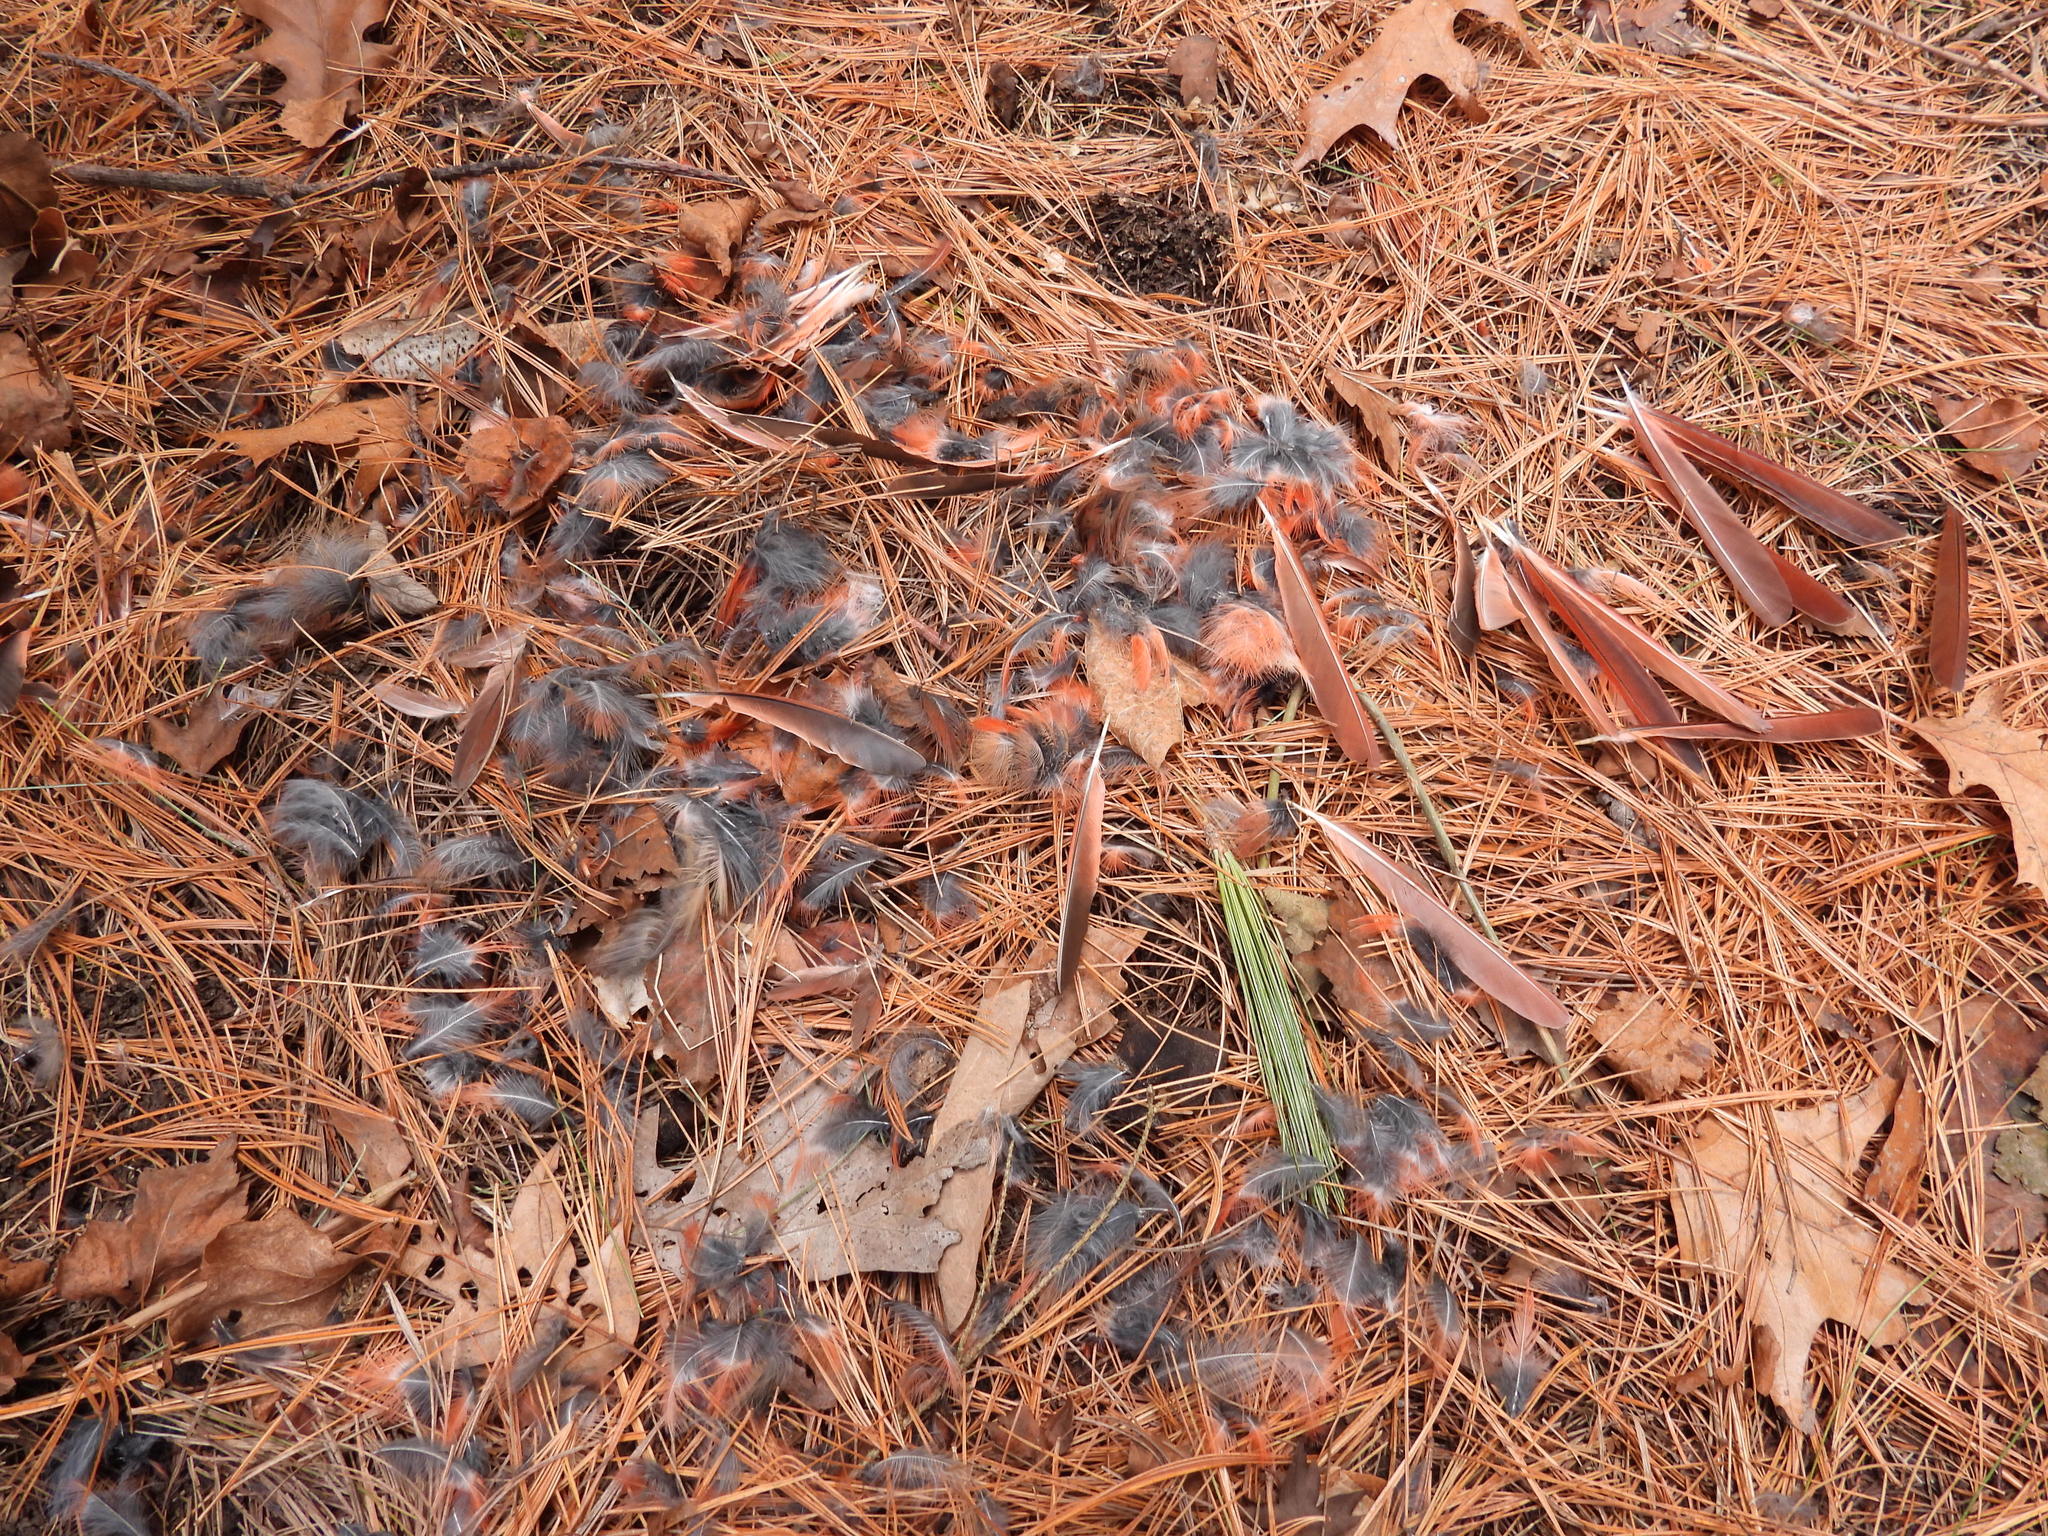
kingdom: Animalia
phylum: Chordata
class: Aves
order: Passeriformes
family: Cardinalidae
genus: Cardinalis
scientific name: Cardinalis cardinalis
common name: Northern cardinal
